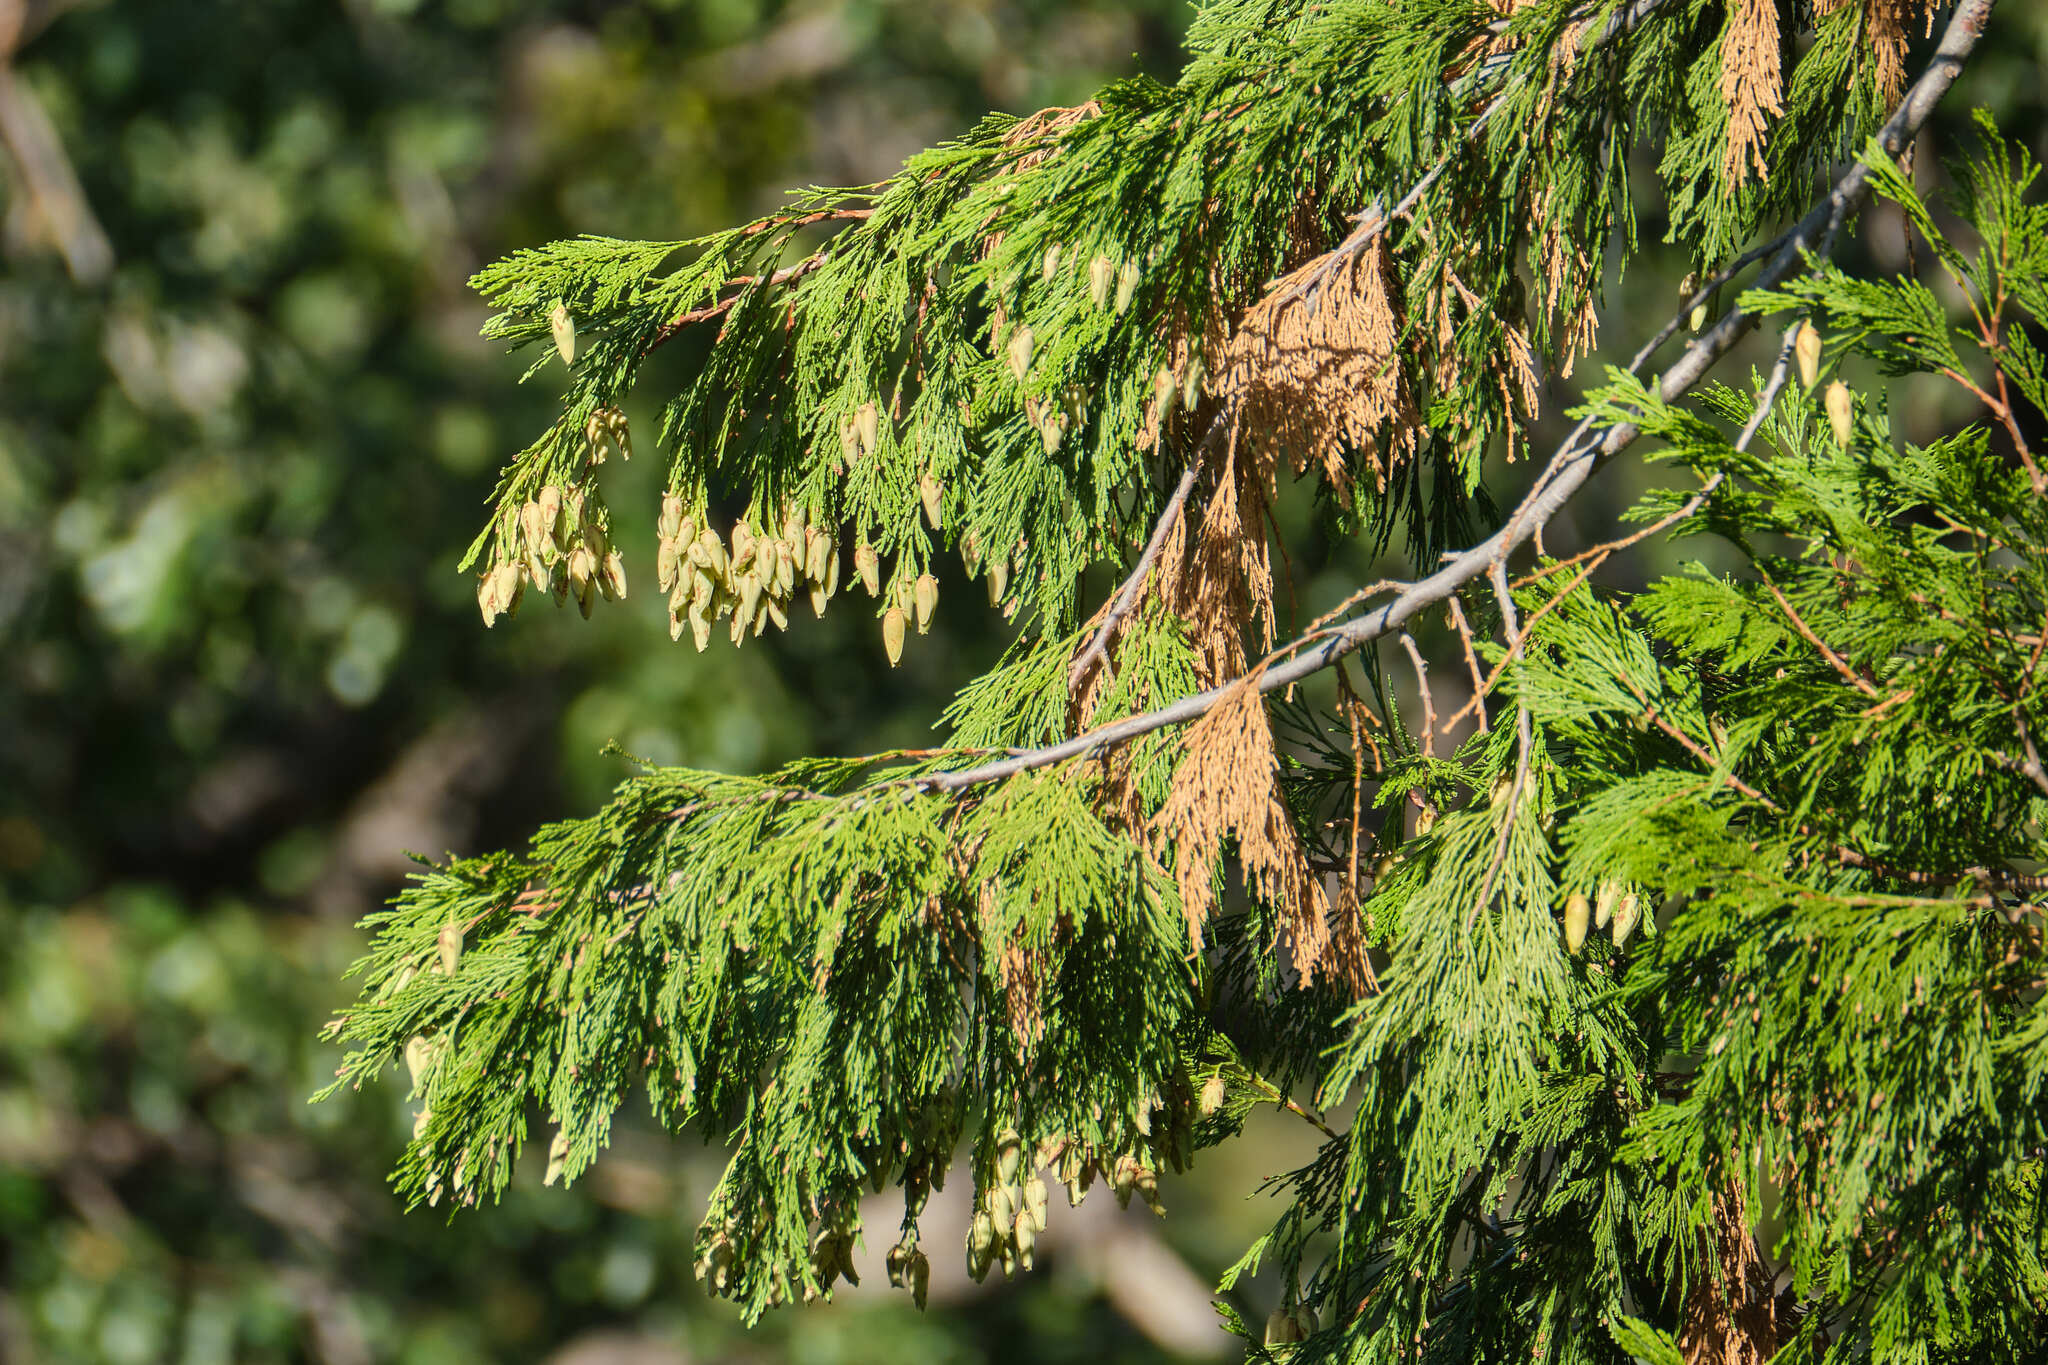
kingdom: Plantae
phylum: Tracheophyta
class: Pinopsida
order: Pinales
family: Cupressaceae
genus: Calocedrus
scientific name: Calocedrus decurrens
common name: Californian incense-cedar
